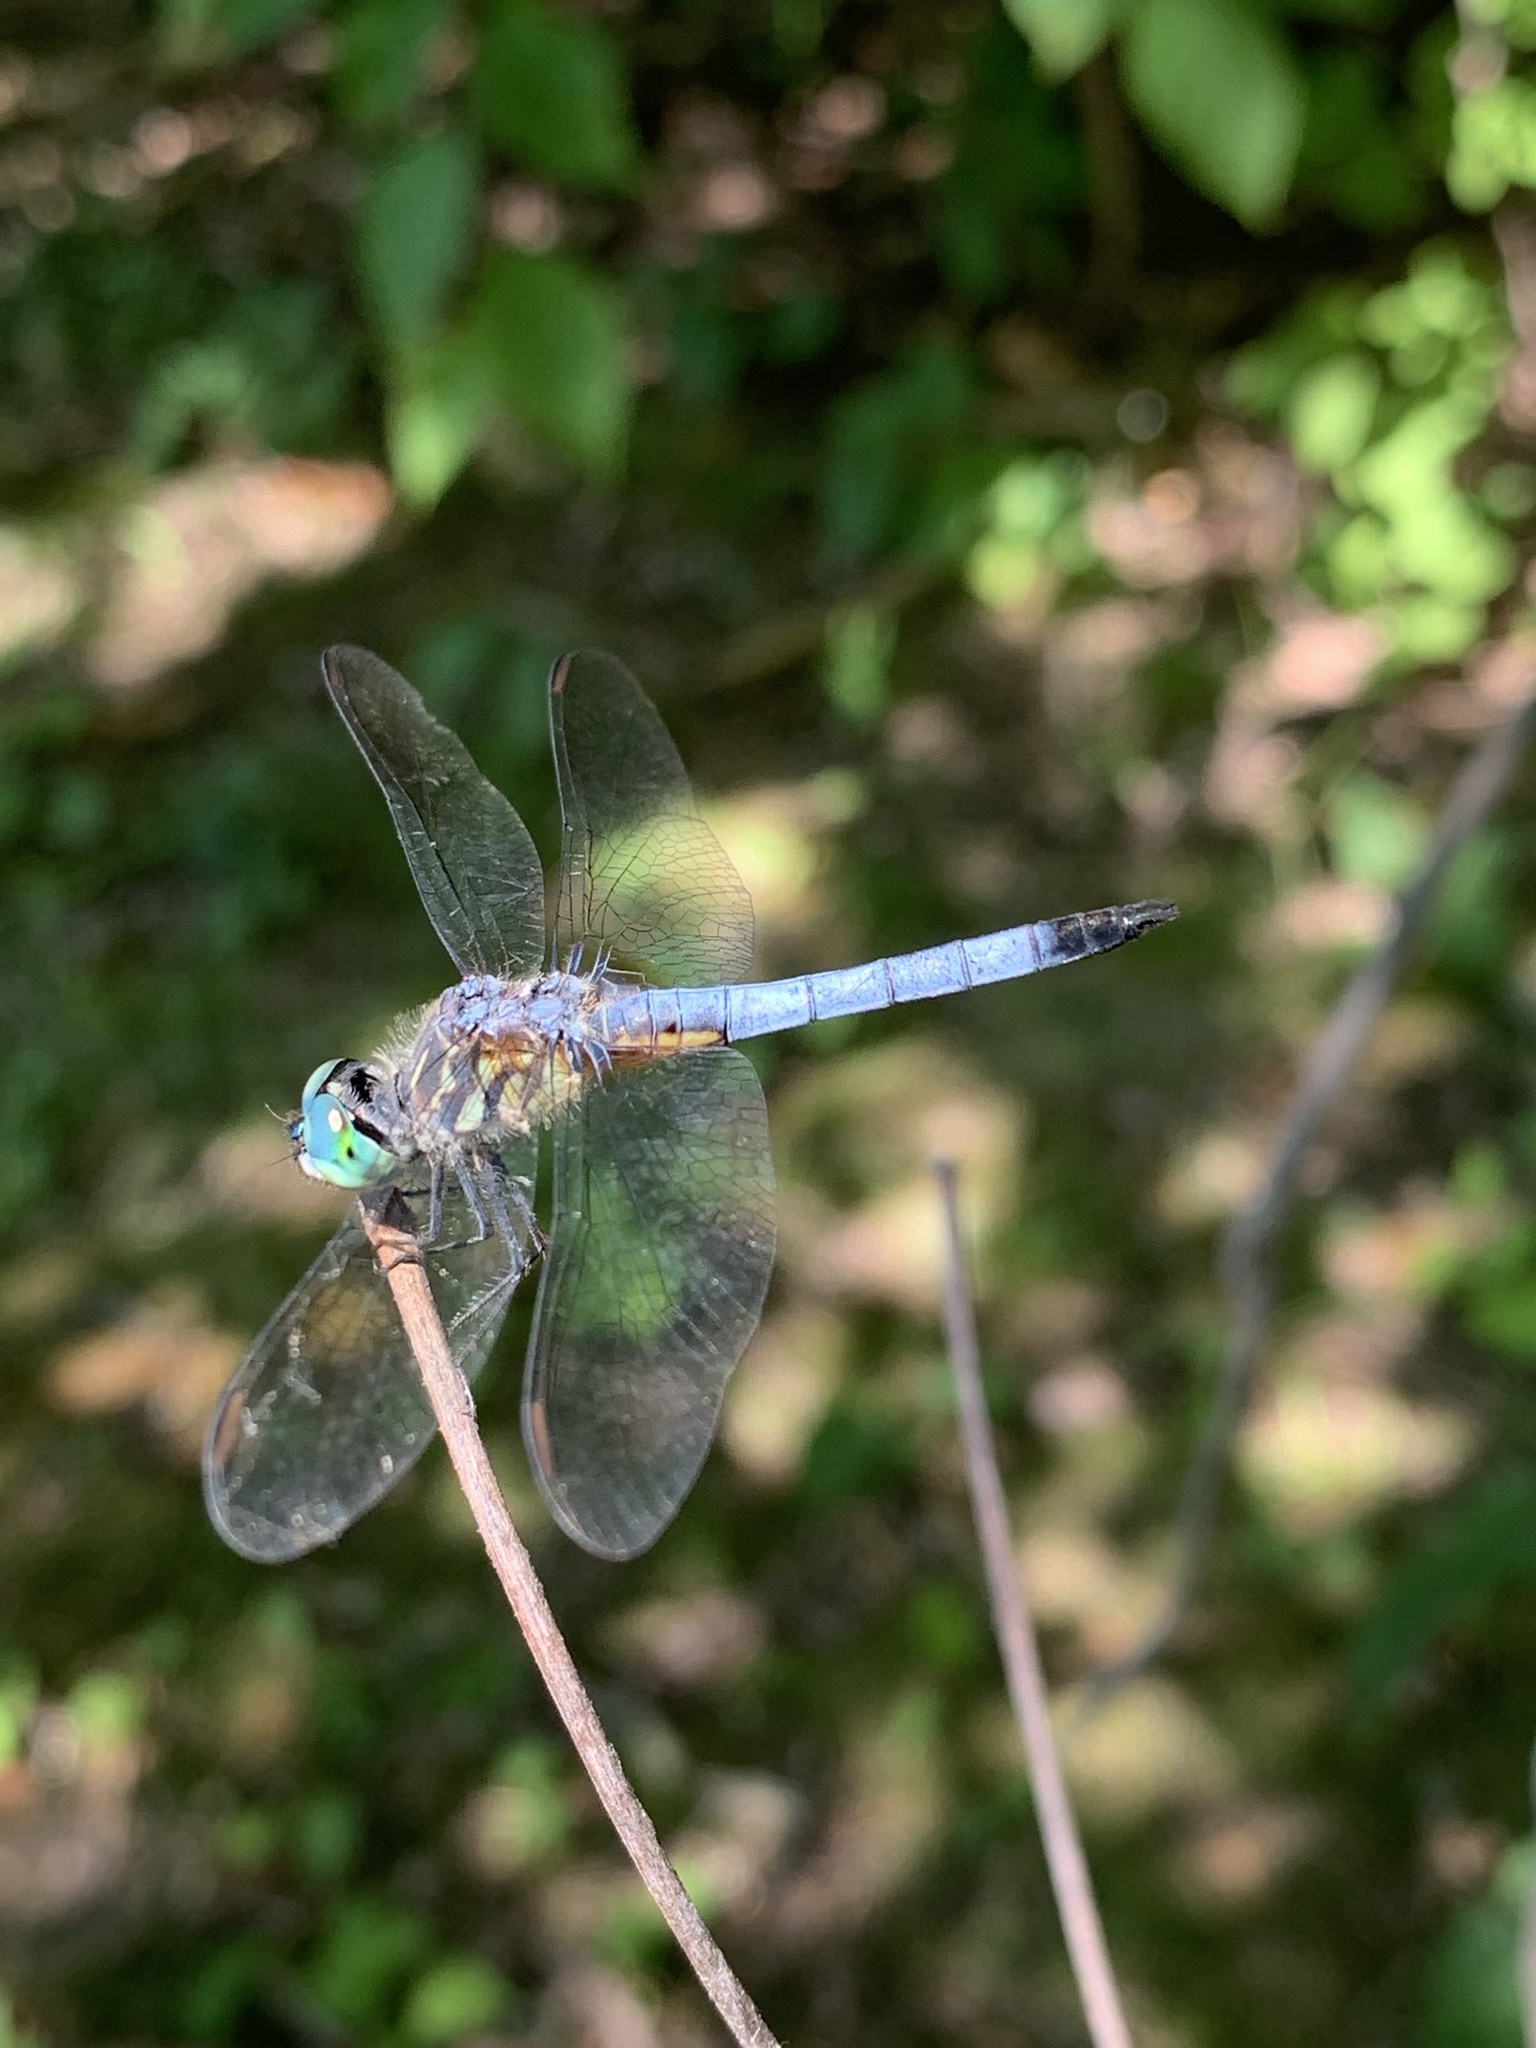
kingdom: Animalia
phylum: Arthropoda
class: Insecta
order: Odonata
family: Libellulidae
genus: Pachydiplax
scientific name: Pachydiplax longipennis
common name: Blue dasher
